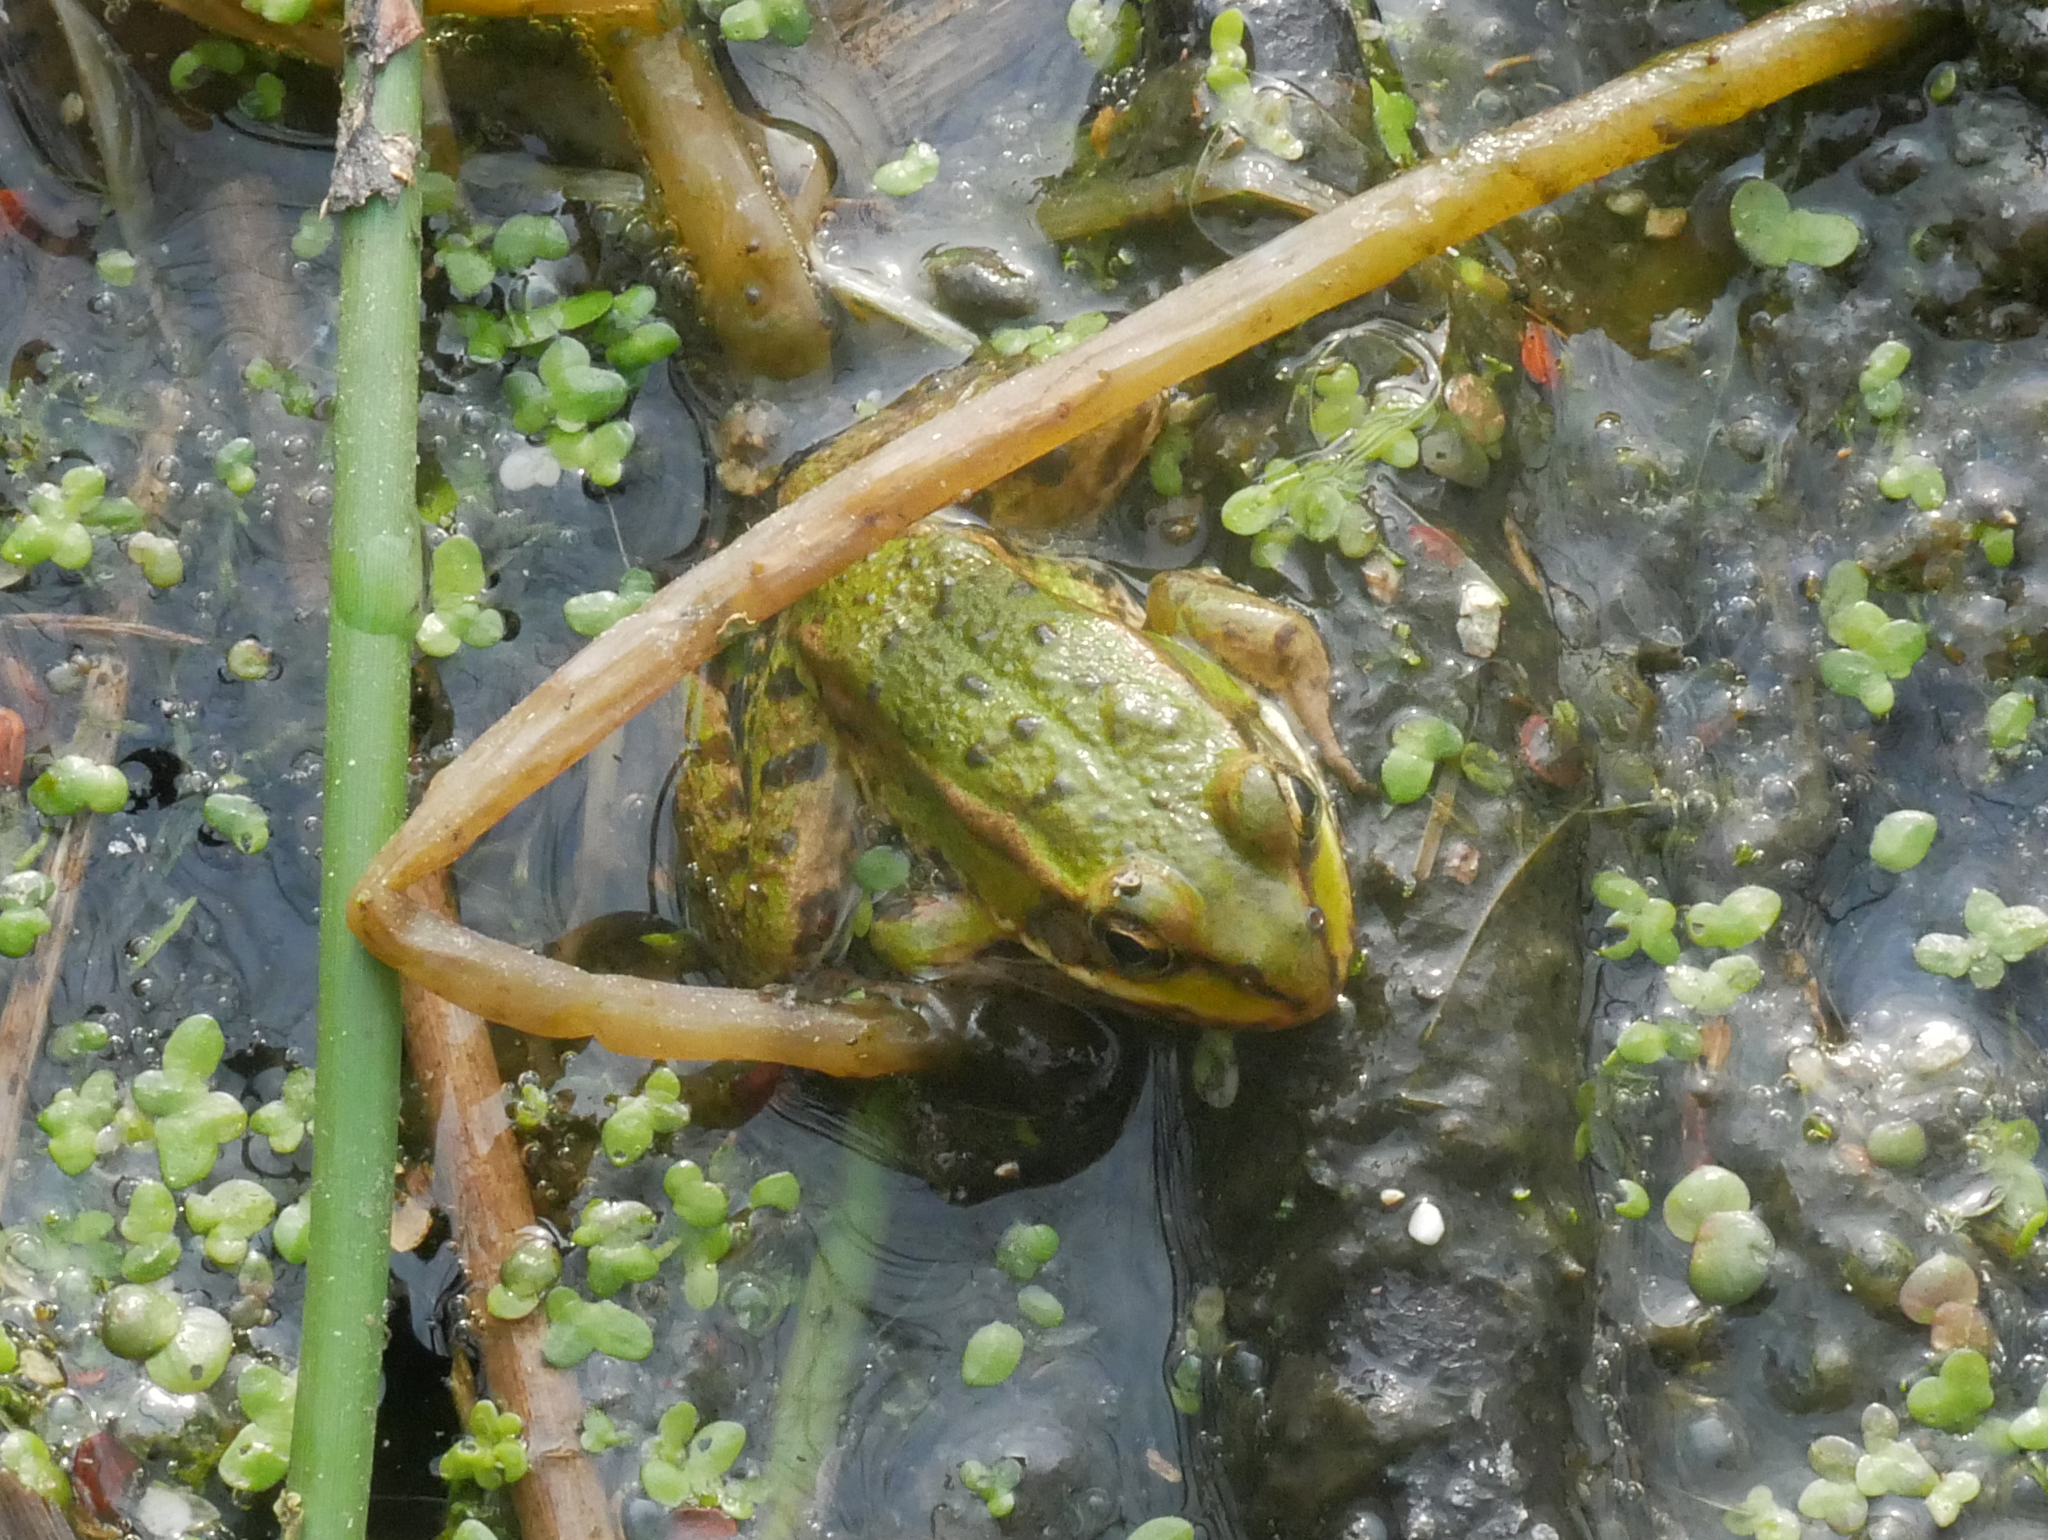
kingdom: Animalia
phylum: Chordata
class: Amphibia
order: Anura
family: Ranidae
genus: Pelophylax
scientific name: Pelophylax
